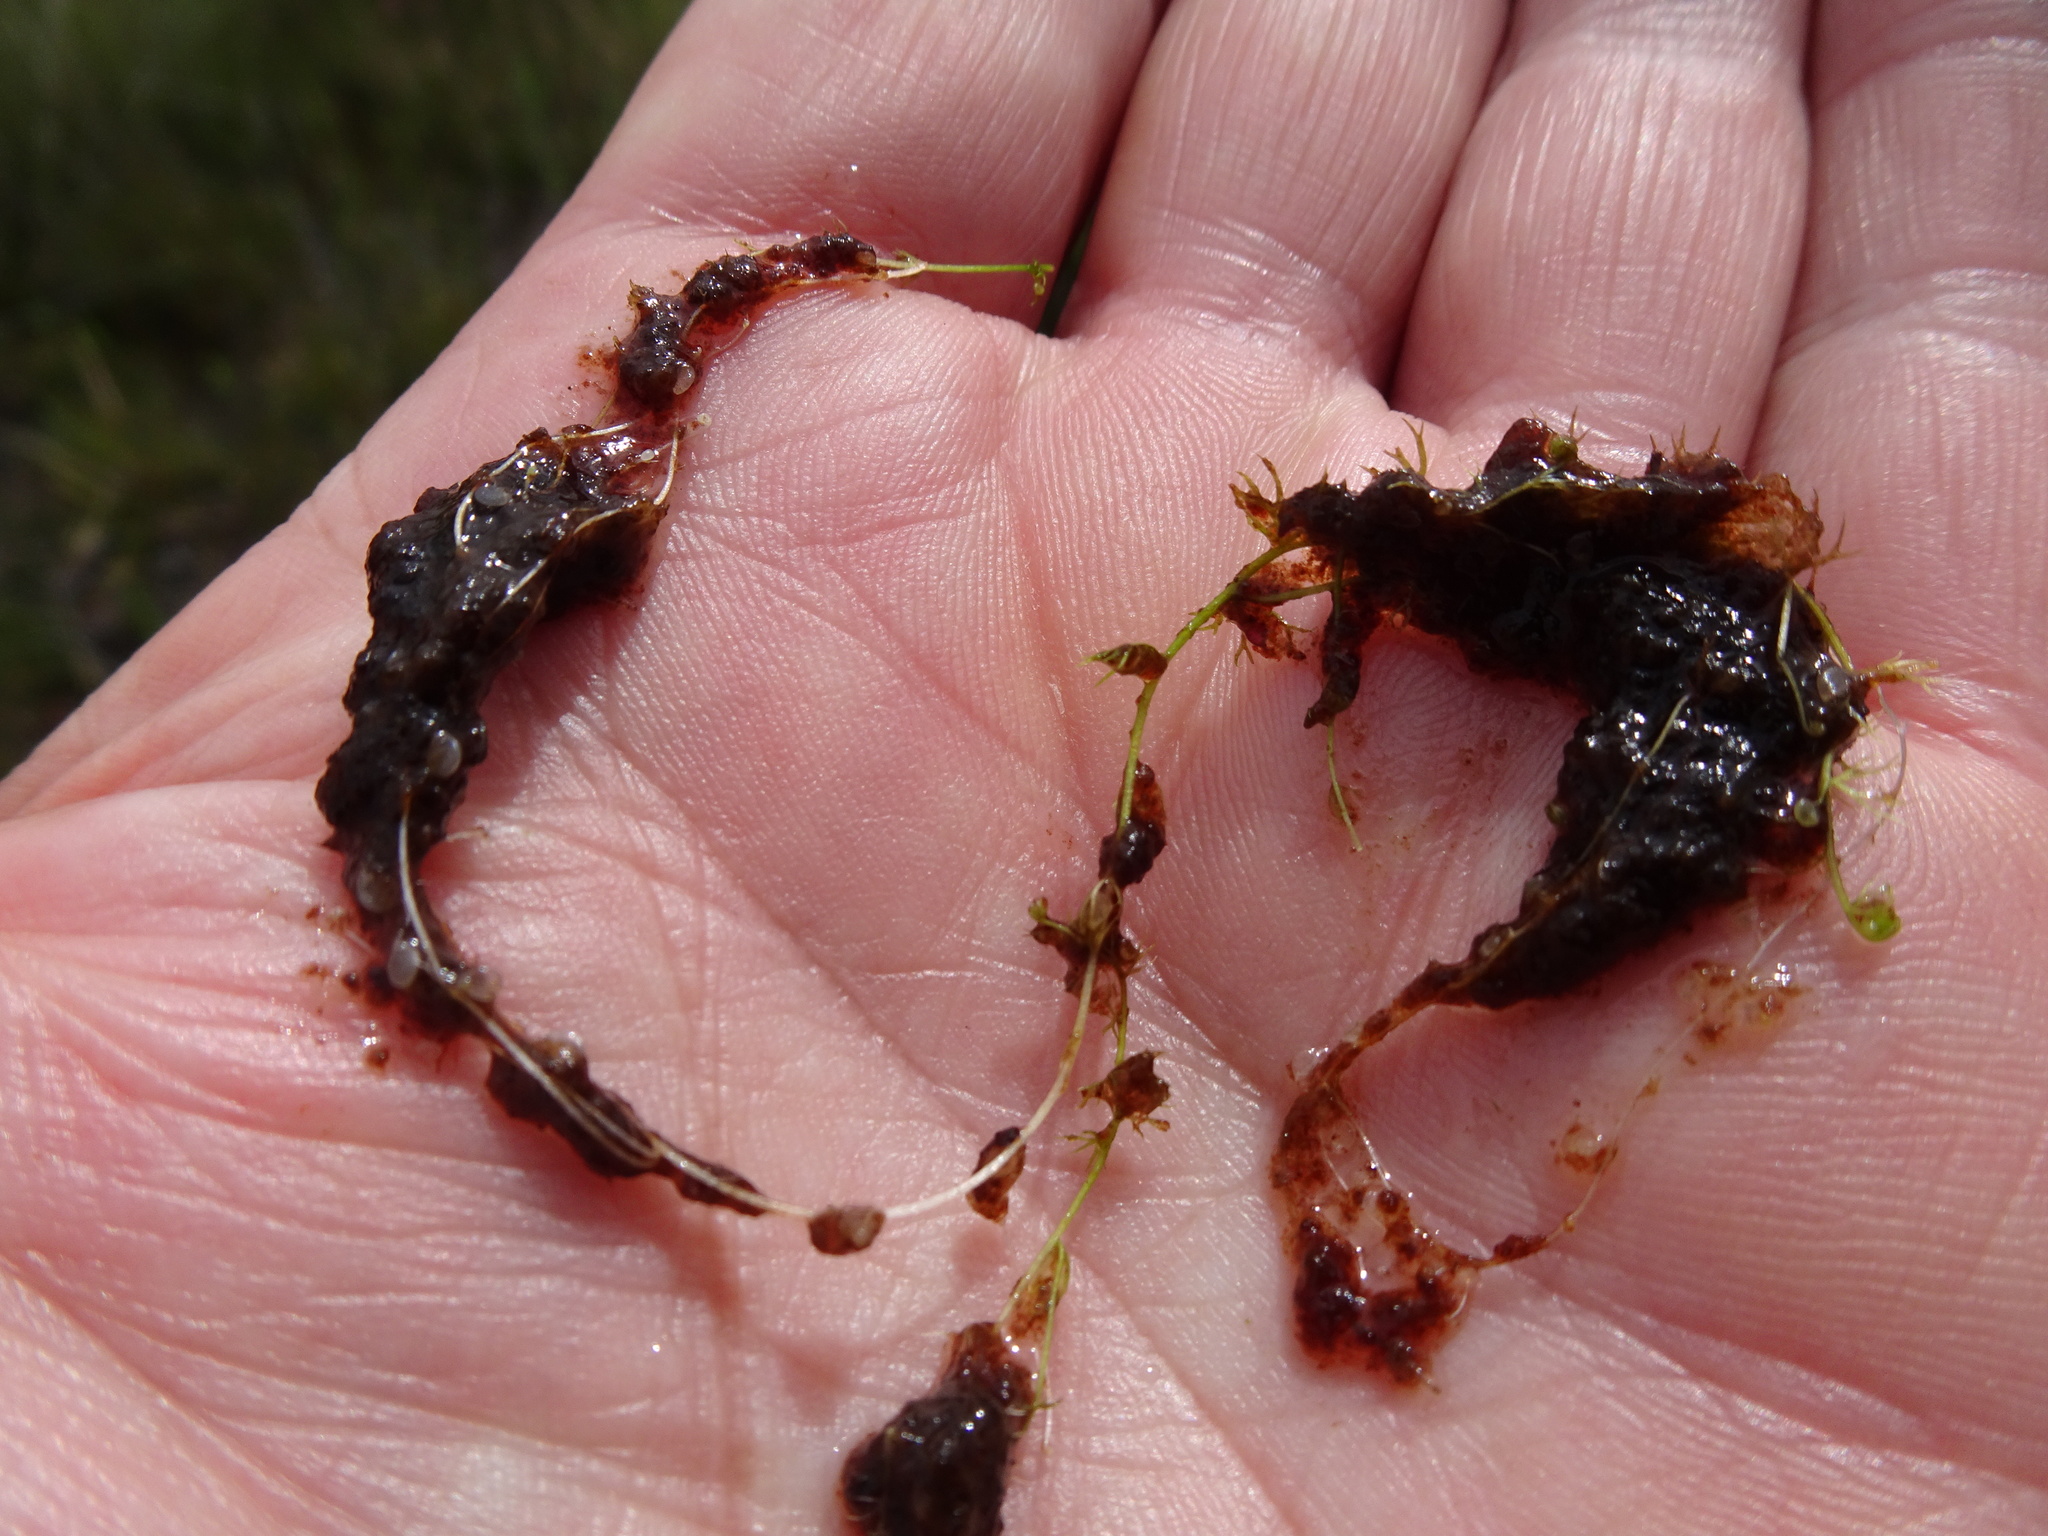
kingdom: Plantae
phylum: Tracheophyta
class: Magnoliopsida
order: Lamiales
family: Lentibulariaceae
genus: Utricularia
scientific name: Utricularia minor
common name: Lesser bladderwort
